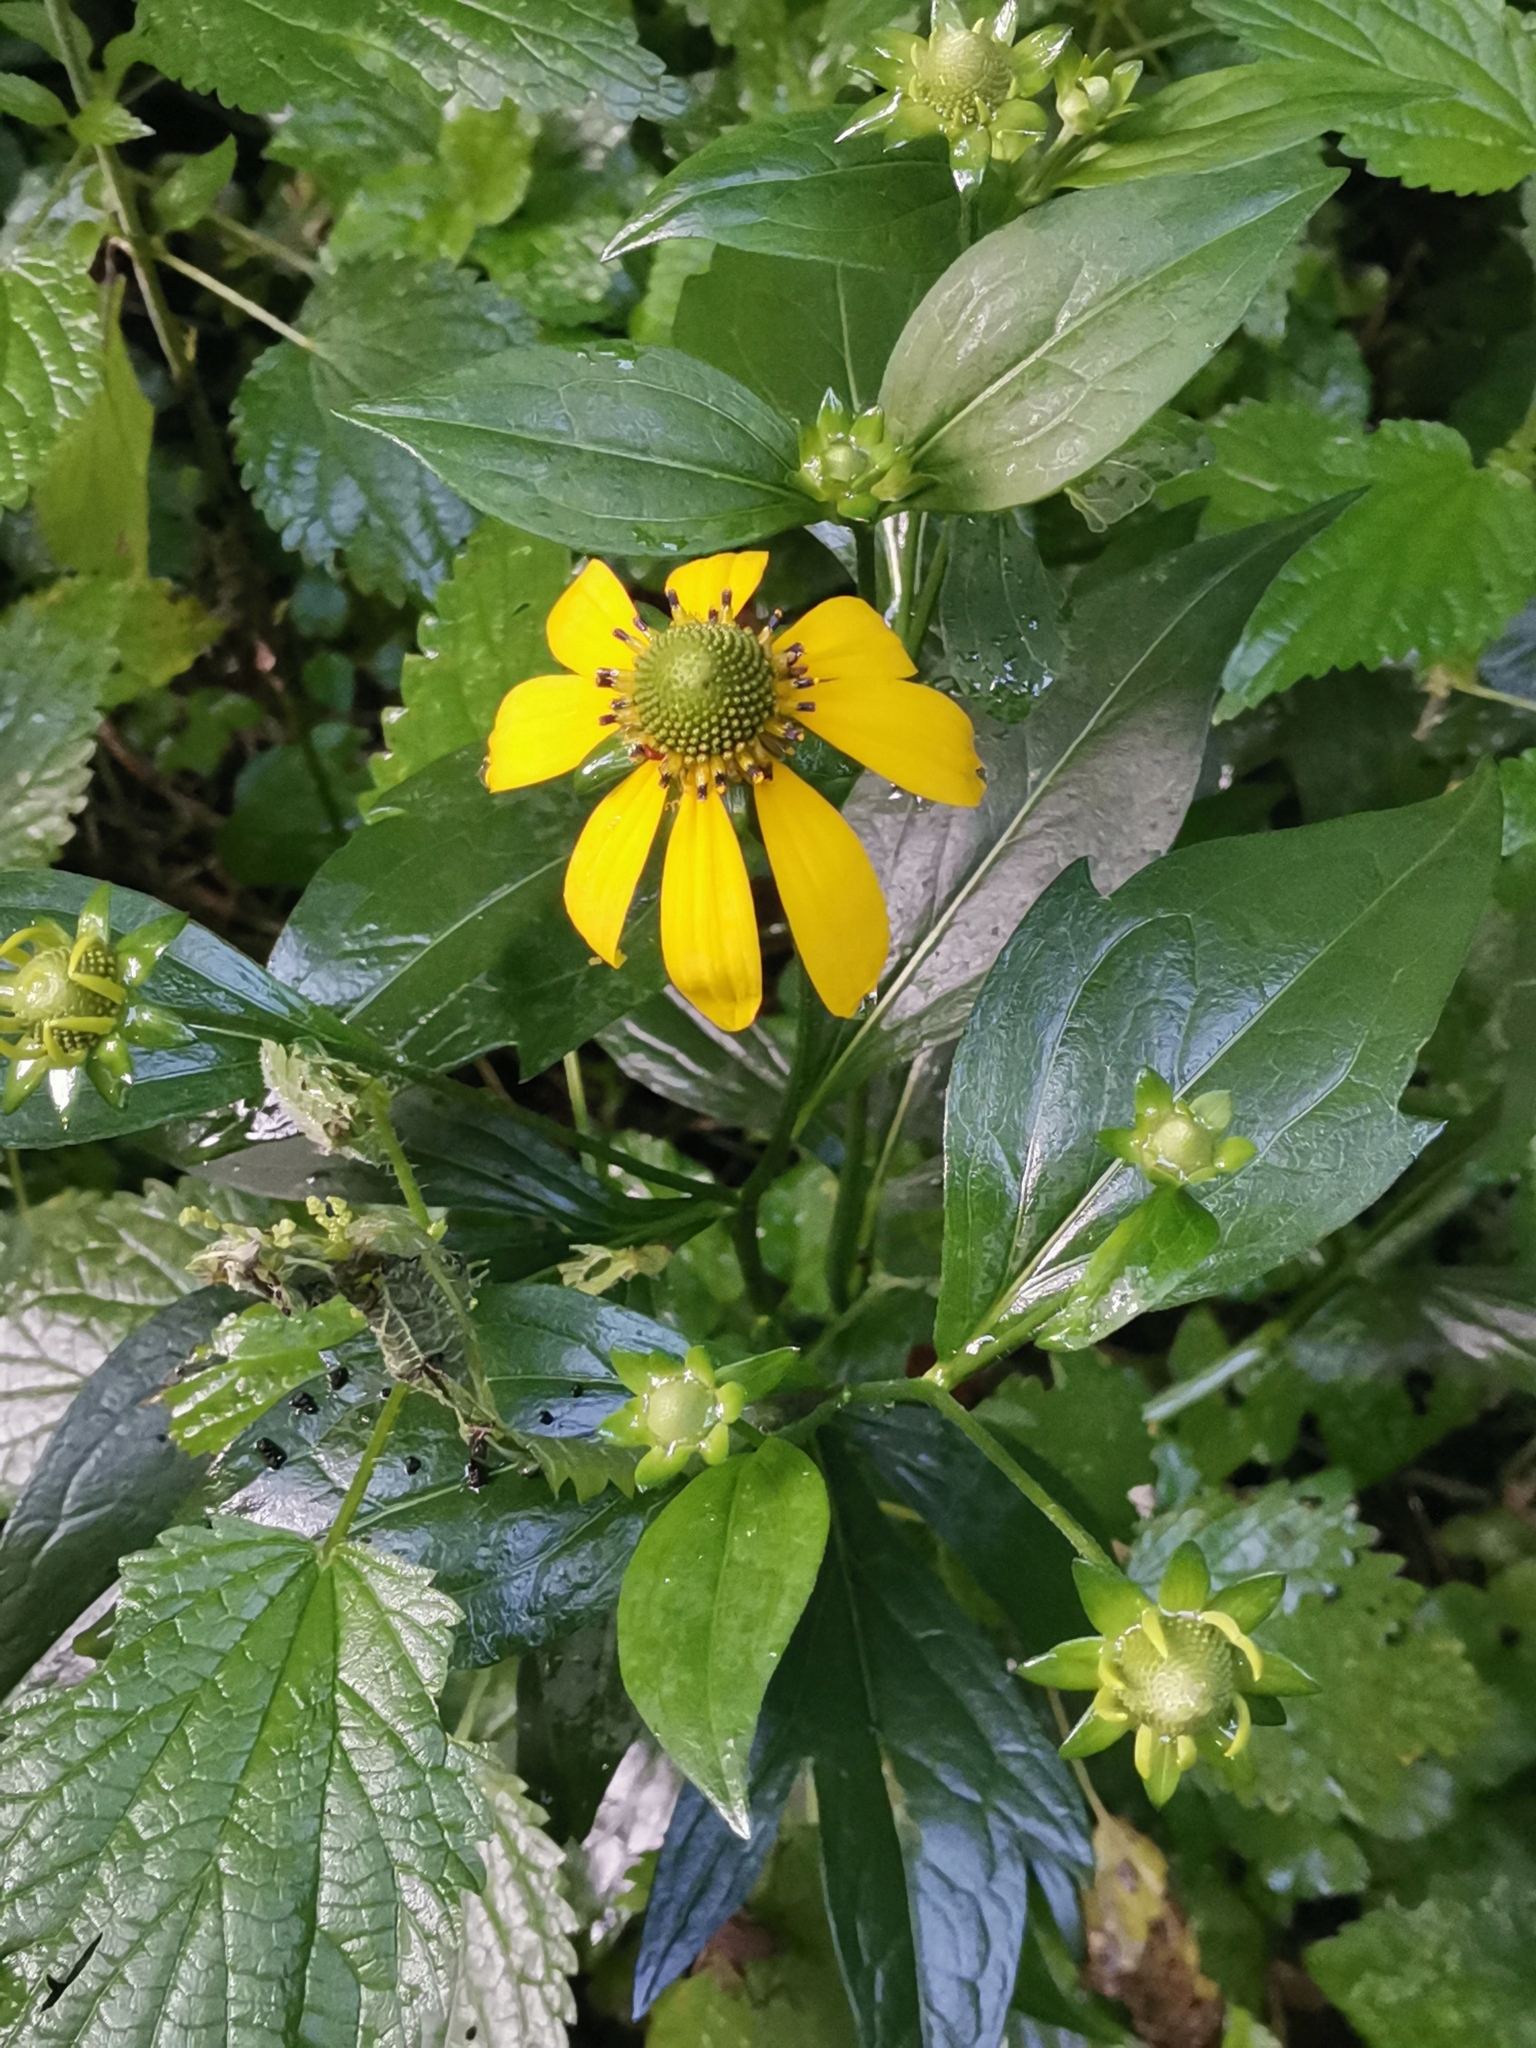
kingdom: Plantae
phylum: Tracheophyta
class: Magnoliopsida
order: Asterales
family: Asteraceae
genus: Rudbeckia
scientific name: Rudbeckia laciniata
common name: Coneflower
